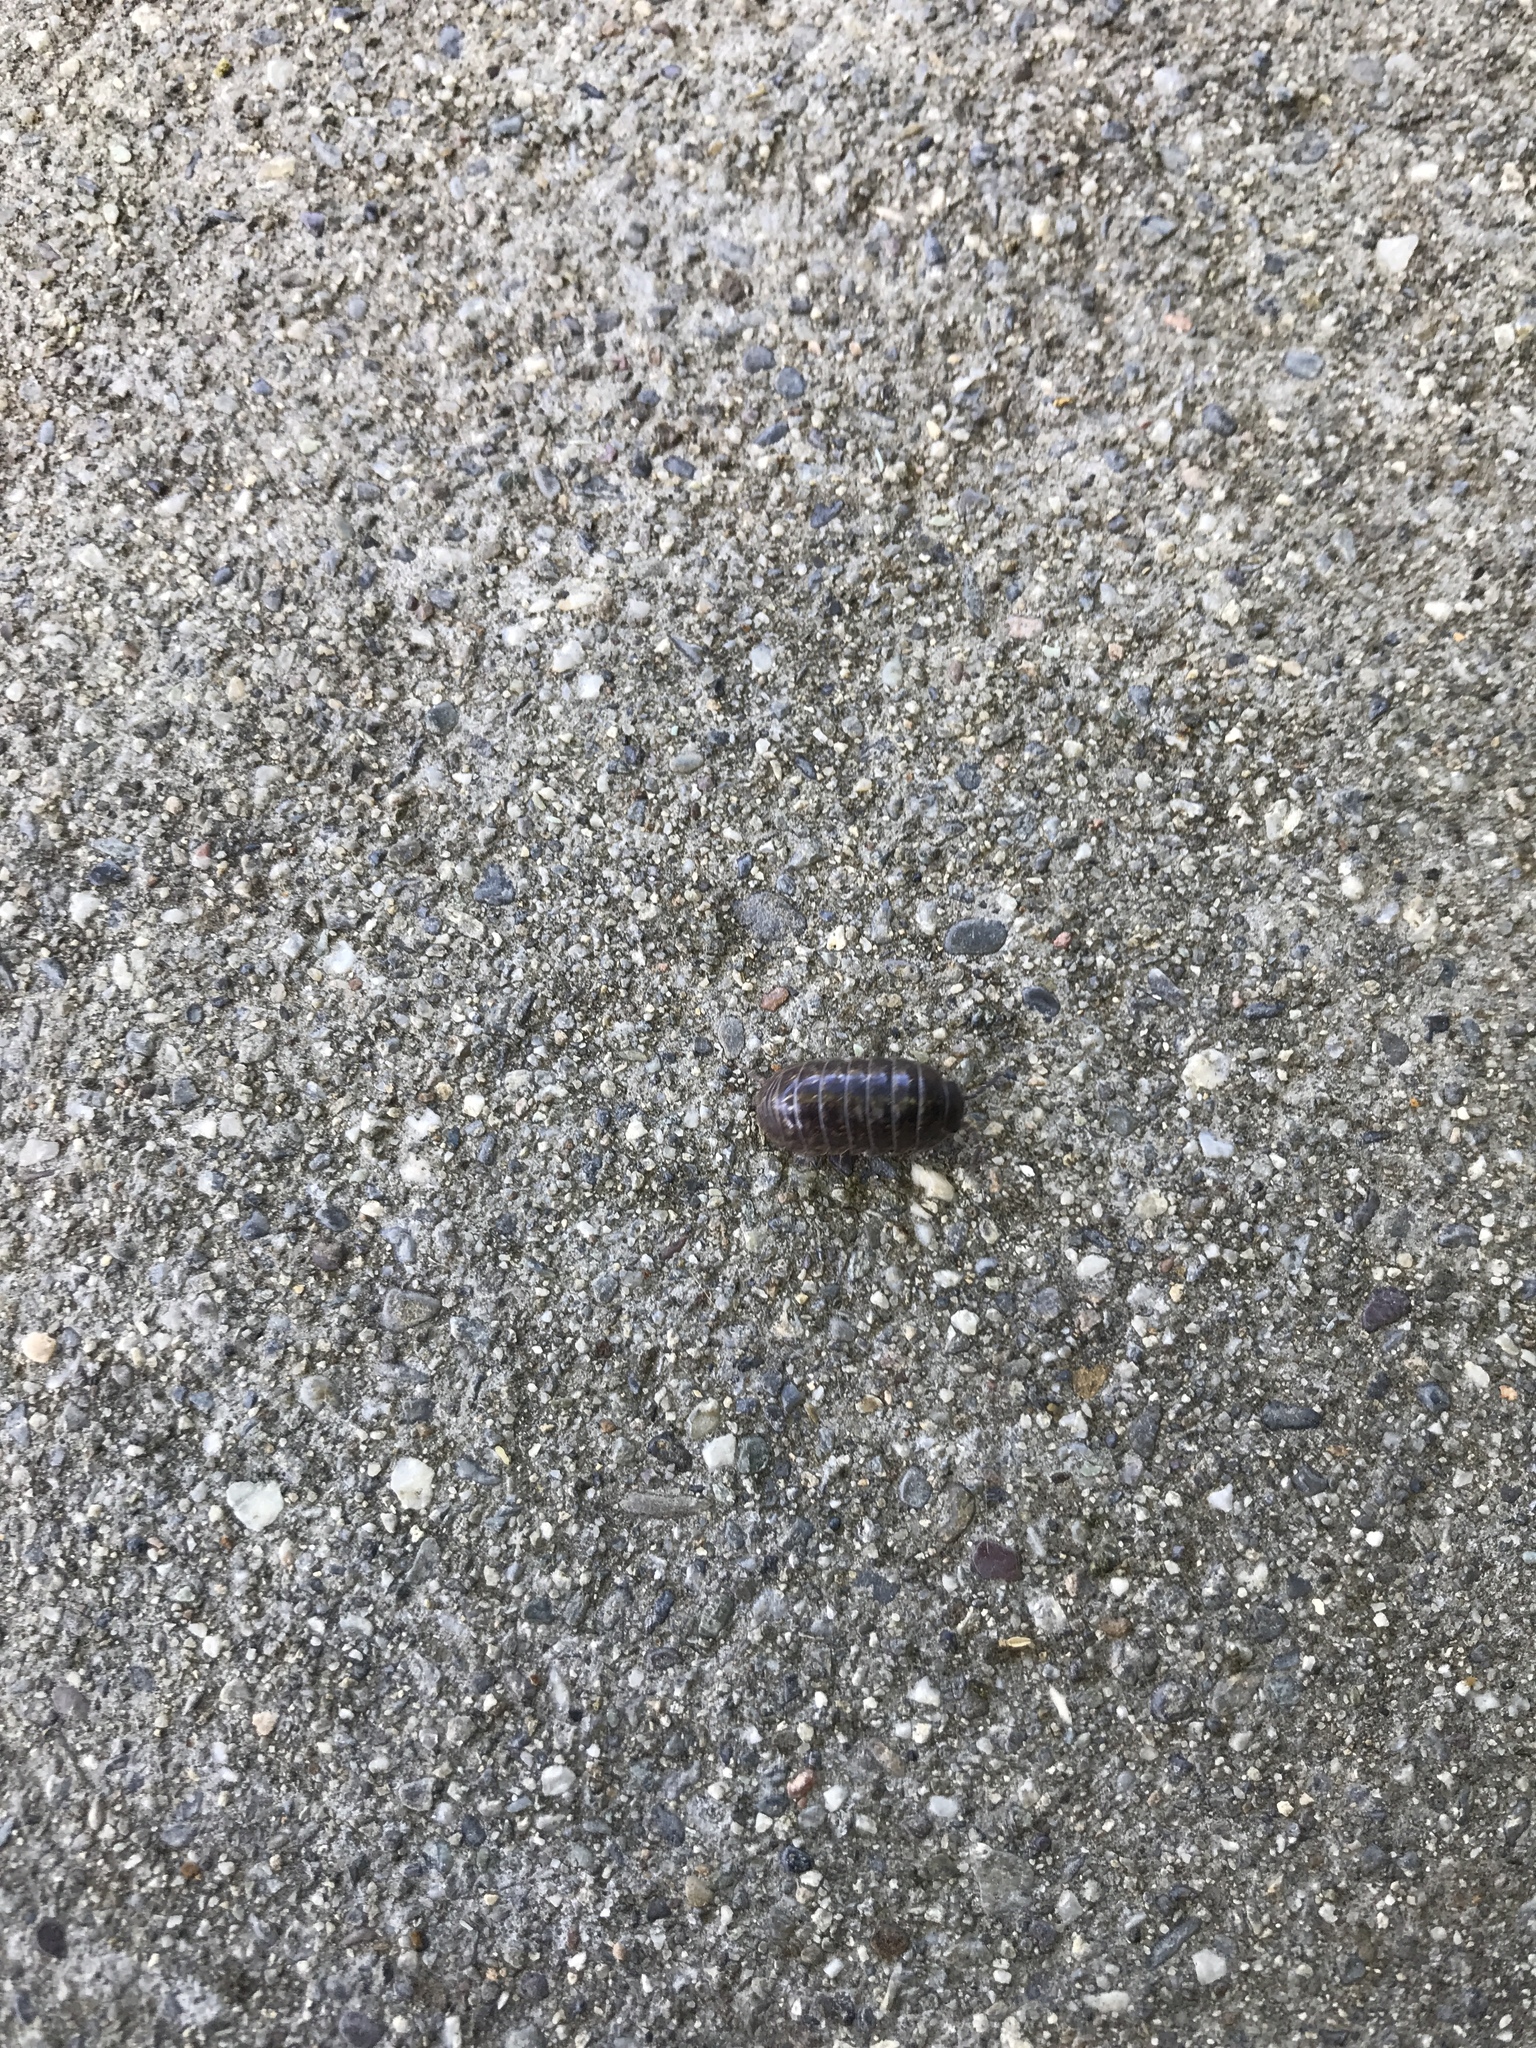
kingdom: Animalia
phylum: Arthropoda
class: Malacostraca
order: Isopoda
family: Armadillidiidae
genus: Armadillidium
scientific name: Armadillidium vulgare
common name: Common pill woodlouse
